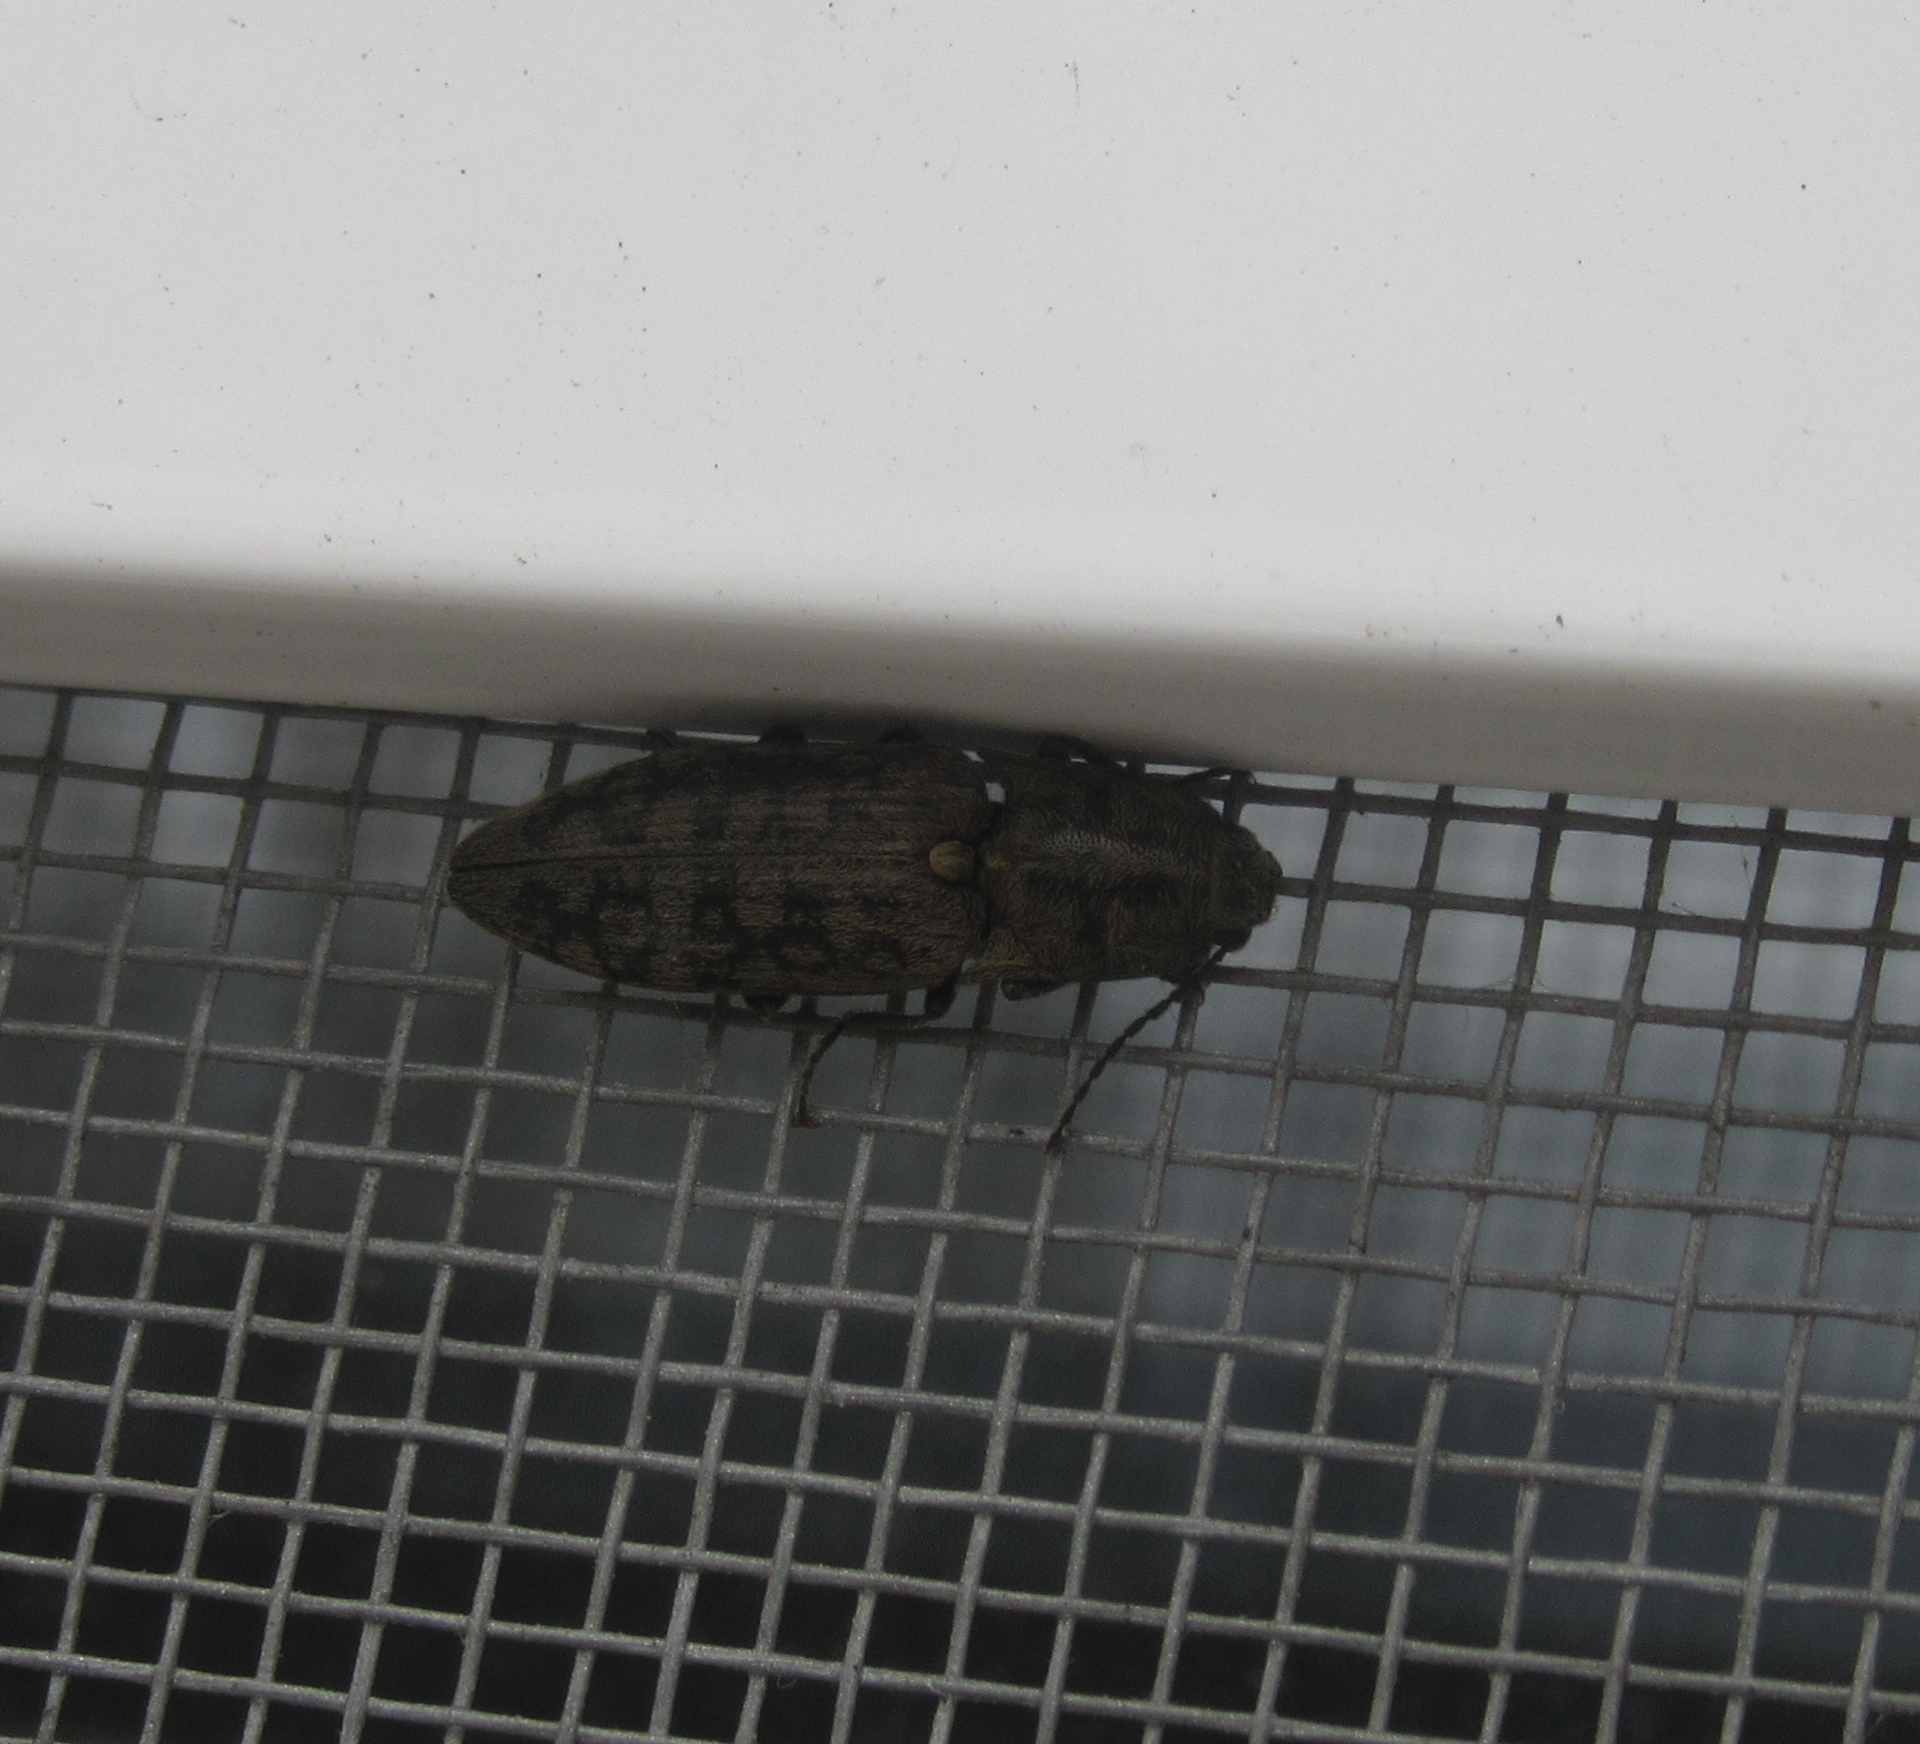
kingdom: Animalia
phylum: Arthropoda
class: Insecta
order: Coleoptera
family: Elateridae
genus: Actenicerus
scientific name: Actenicerus sjaelandicus
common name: Marsh click beetle
